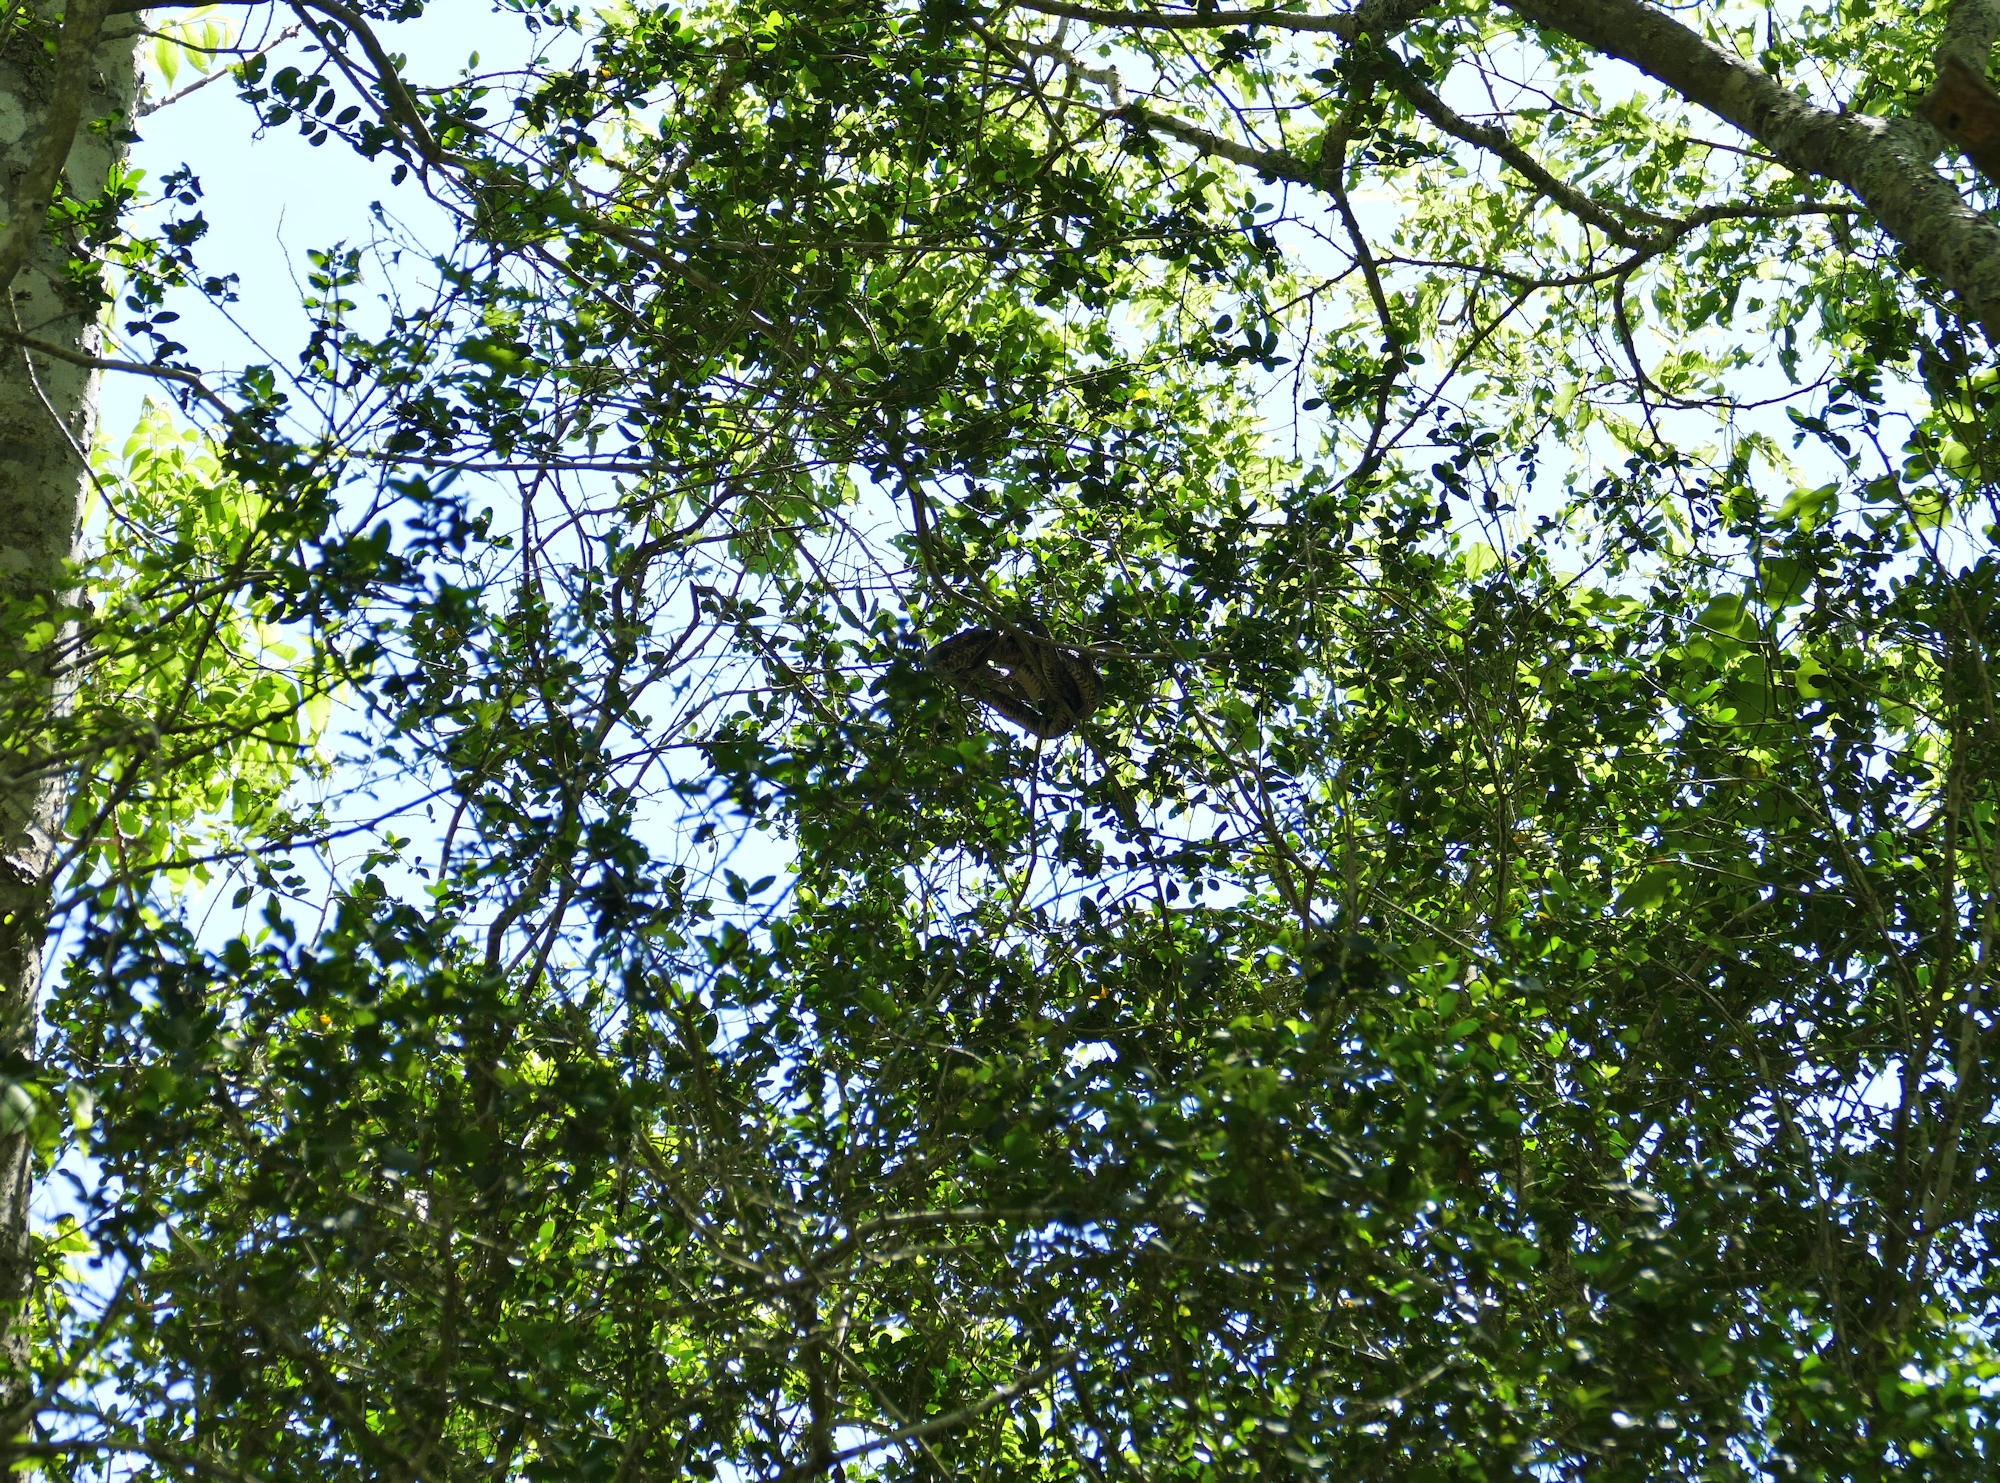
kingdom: Animalia
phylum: Chordata
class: Squamata
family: Colubridae
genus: Pantherophis
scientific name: Pantherophis obsoletus
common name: Black rat snake
